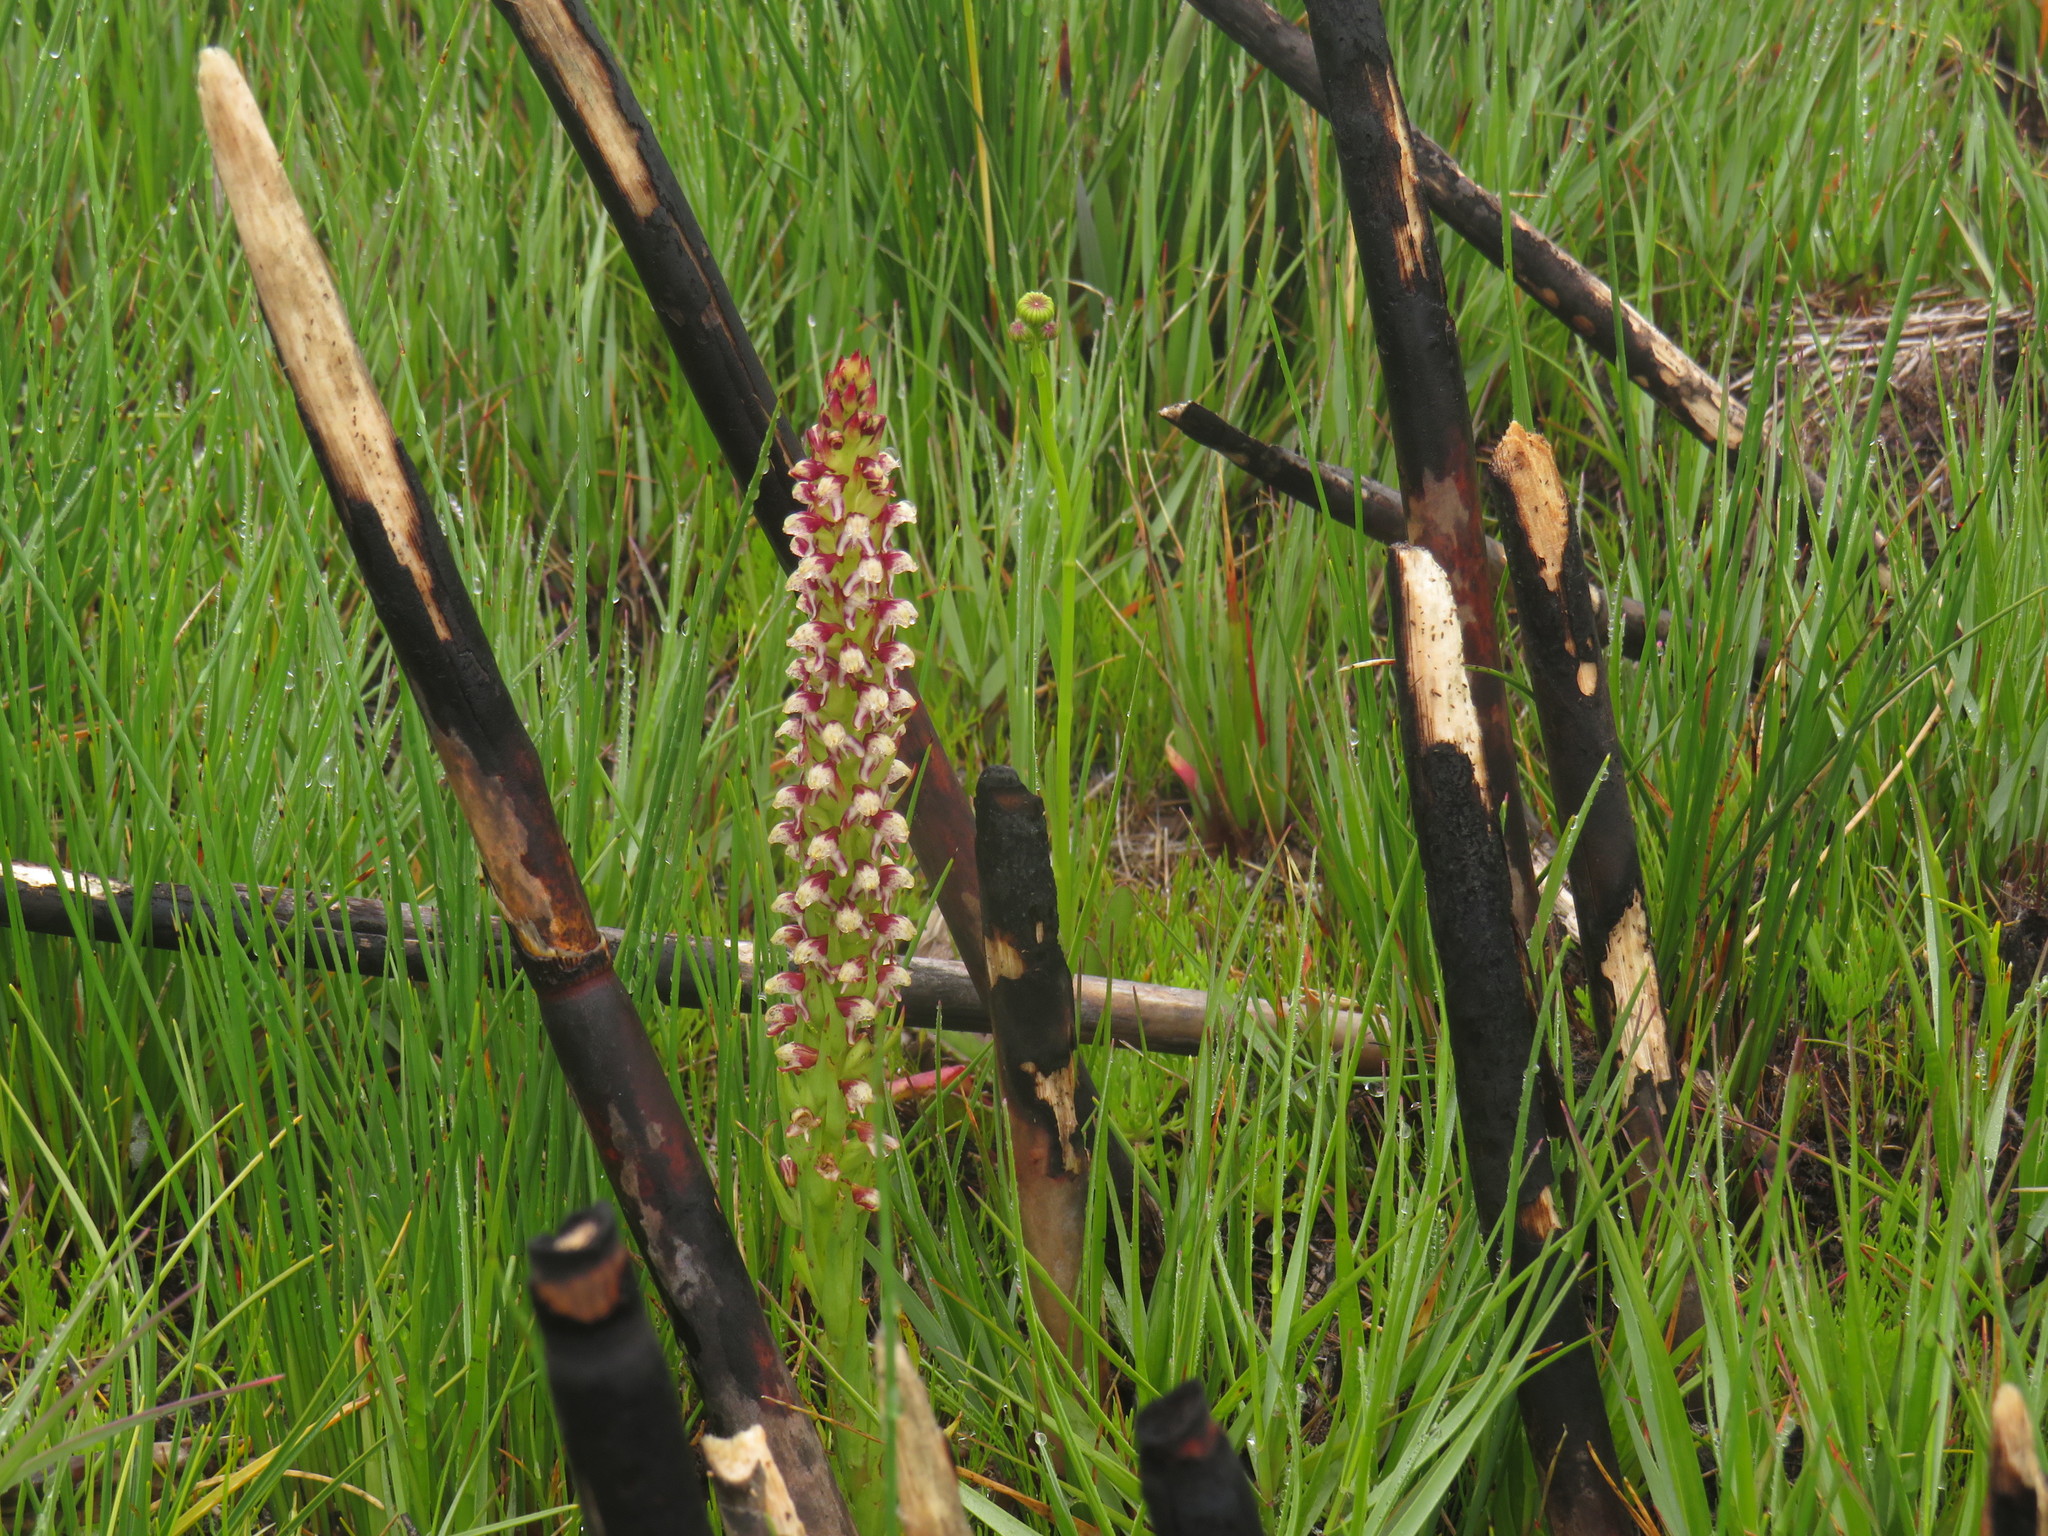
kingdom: Plantae
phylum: Tracheophyta
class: Liliopsida
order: Asparagales
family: Orchidaceae
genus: Disa
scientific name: Disa obtusa
